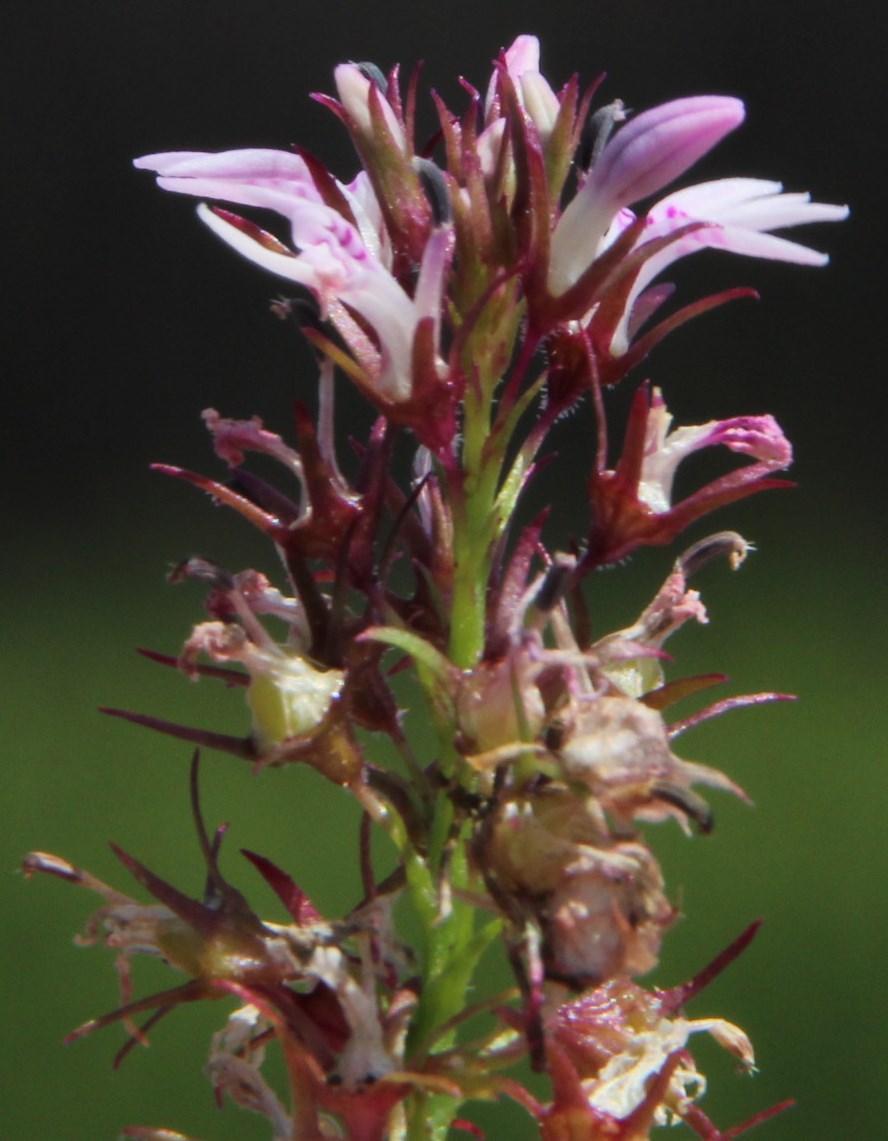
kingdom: Plantae
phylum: Tracheophyta
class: Magnoliopsida
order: Asterales
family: Campanulaceae
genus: Lobelia
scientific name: Lobelia jasionoides
